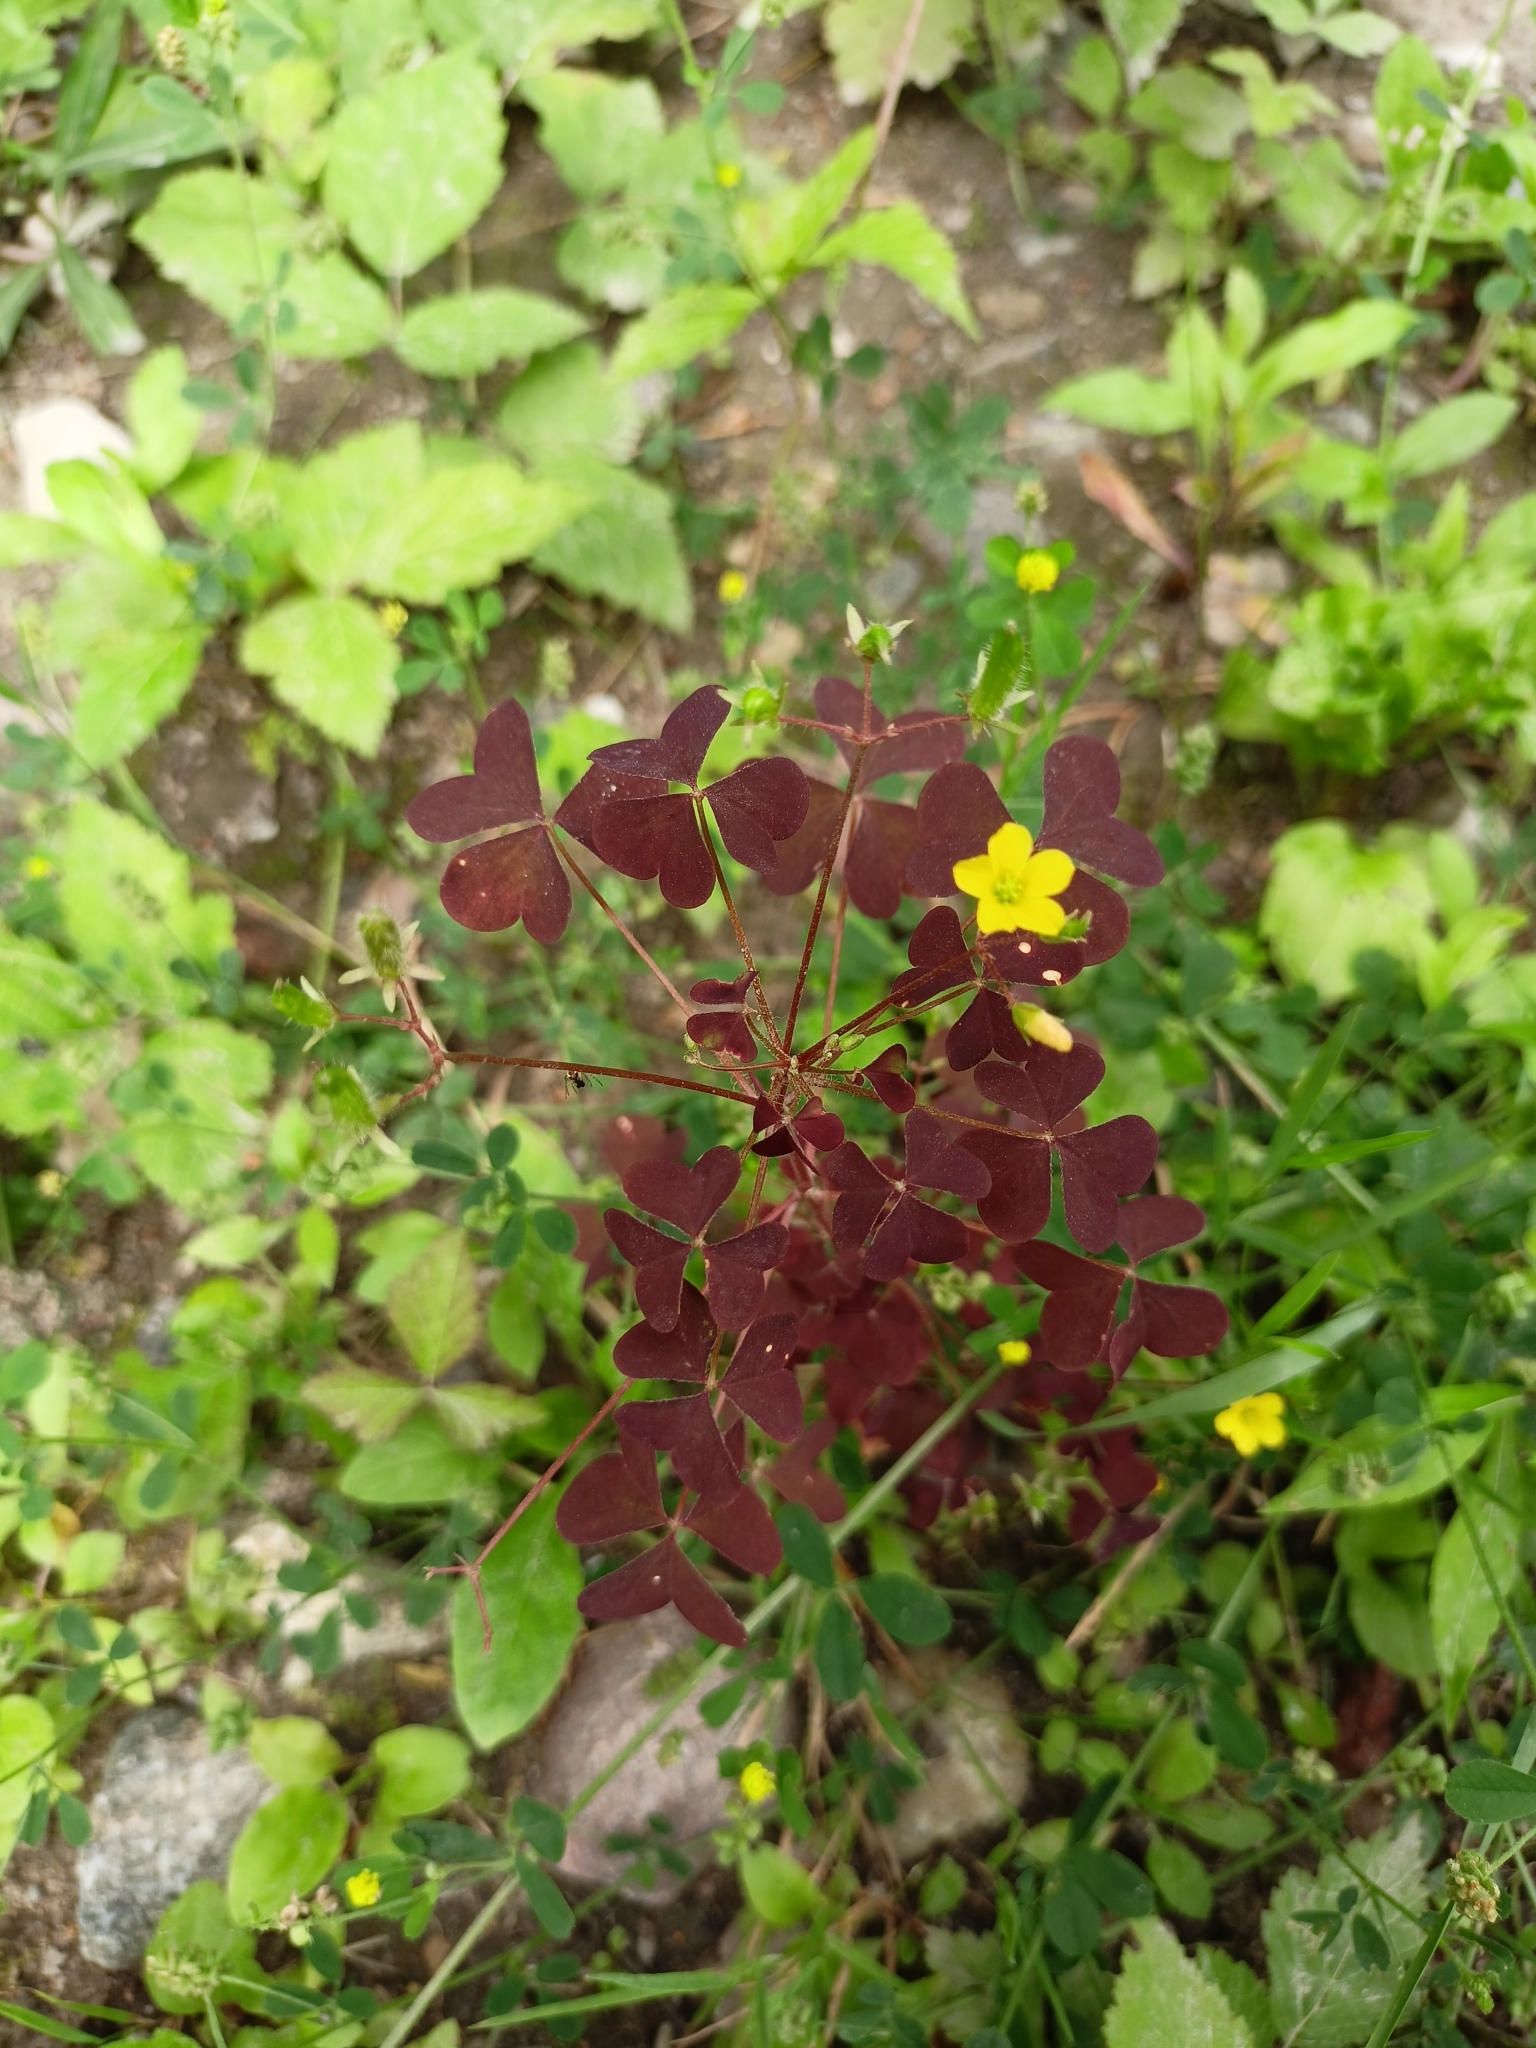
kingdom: Plantae
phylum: Tracheophyta
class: Magnoliopsida
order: Oxalidales
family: Oxalidaceae
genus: Oxalis
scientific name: Oxalis stricta
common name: Upright yellow-sorrel
